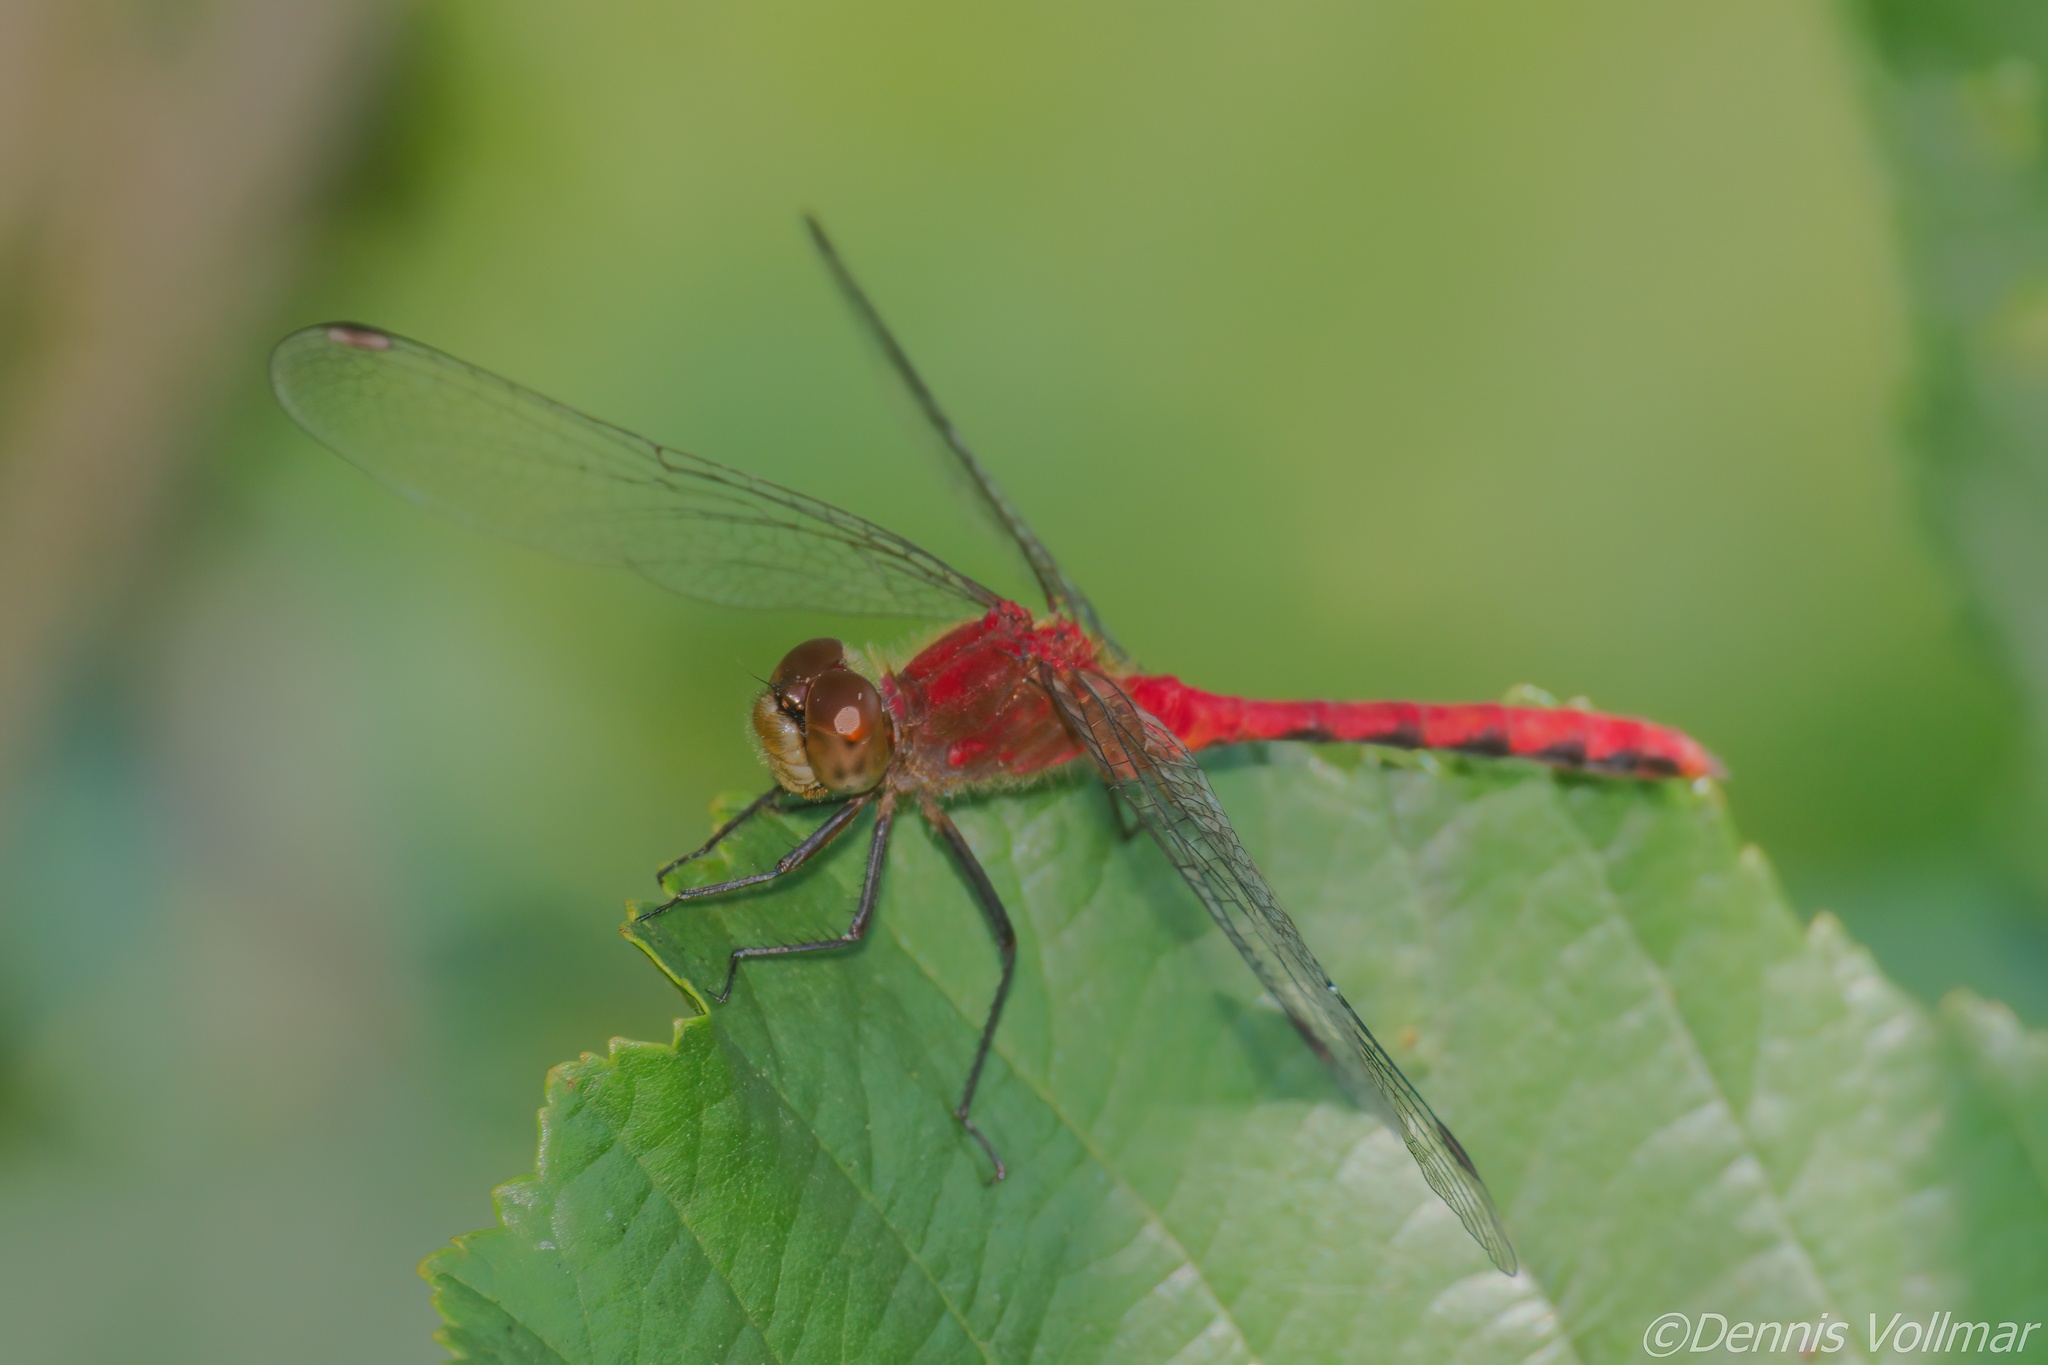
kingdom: Animalia
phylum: Arthropoda
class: Insecta
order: Odonata
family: Libellulidae
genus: Sympetrum
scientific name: Sympetrum
